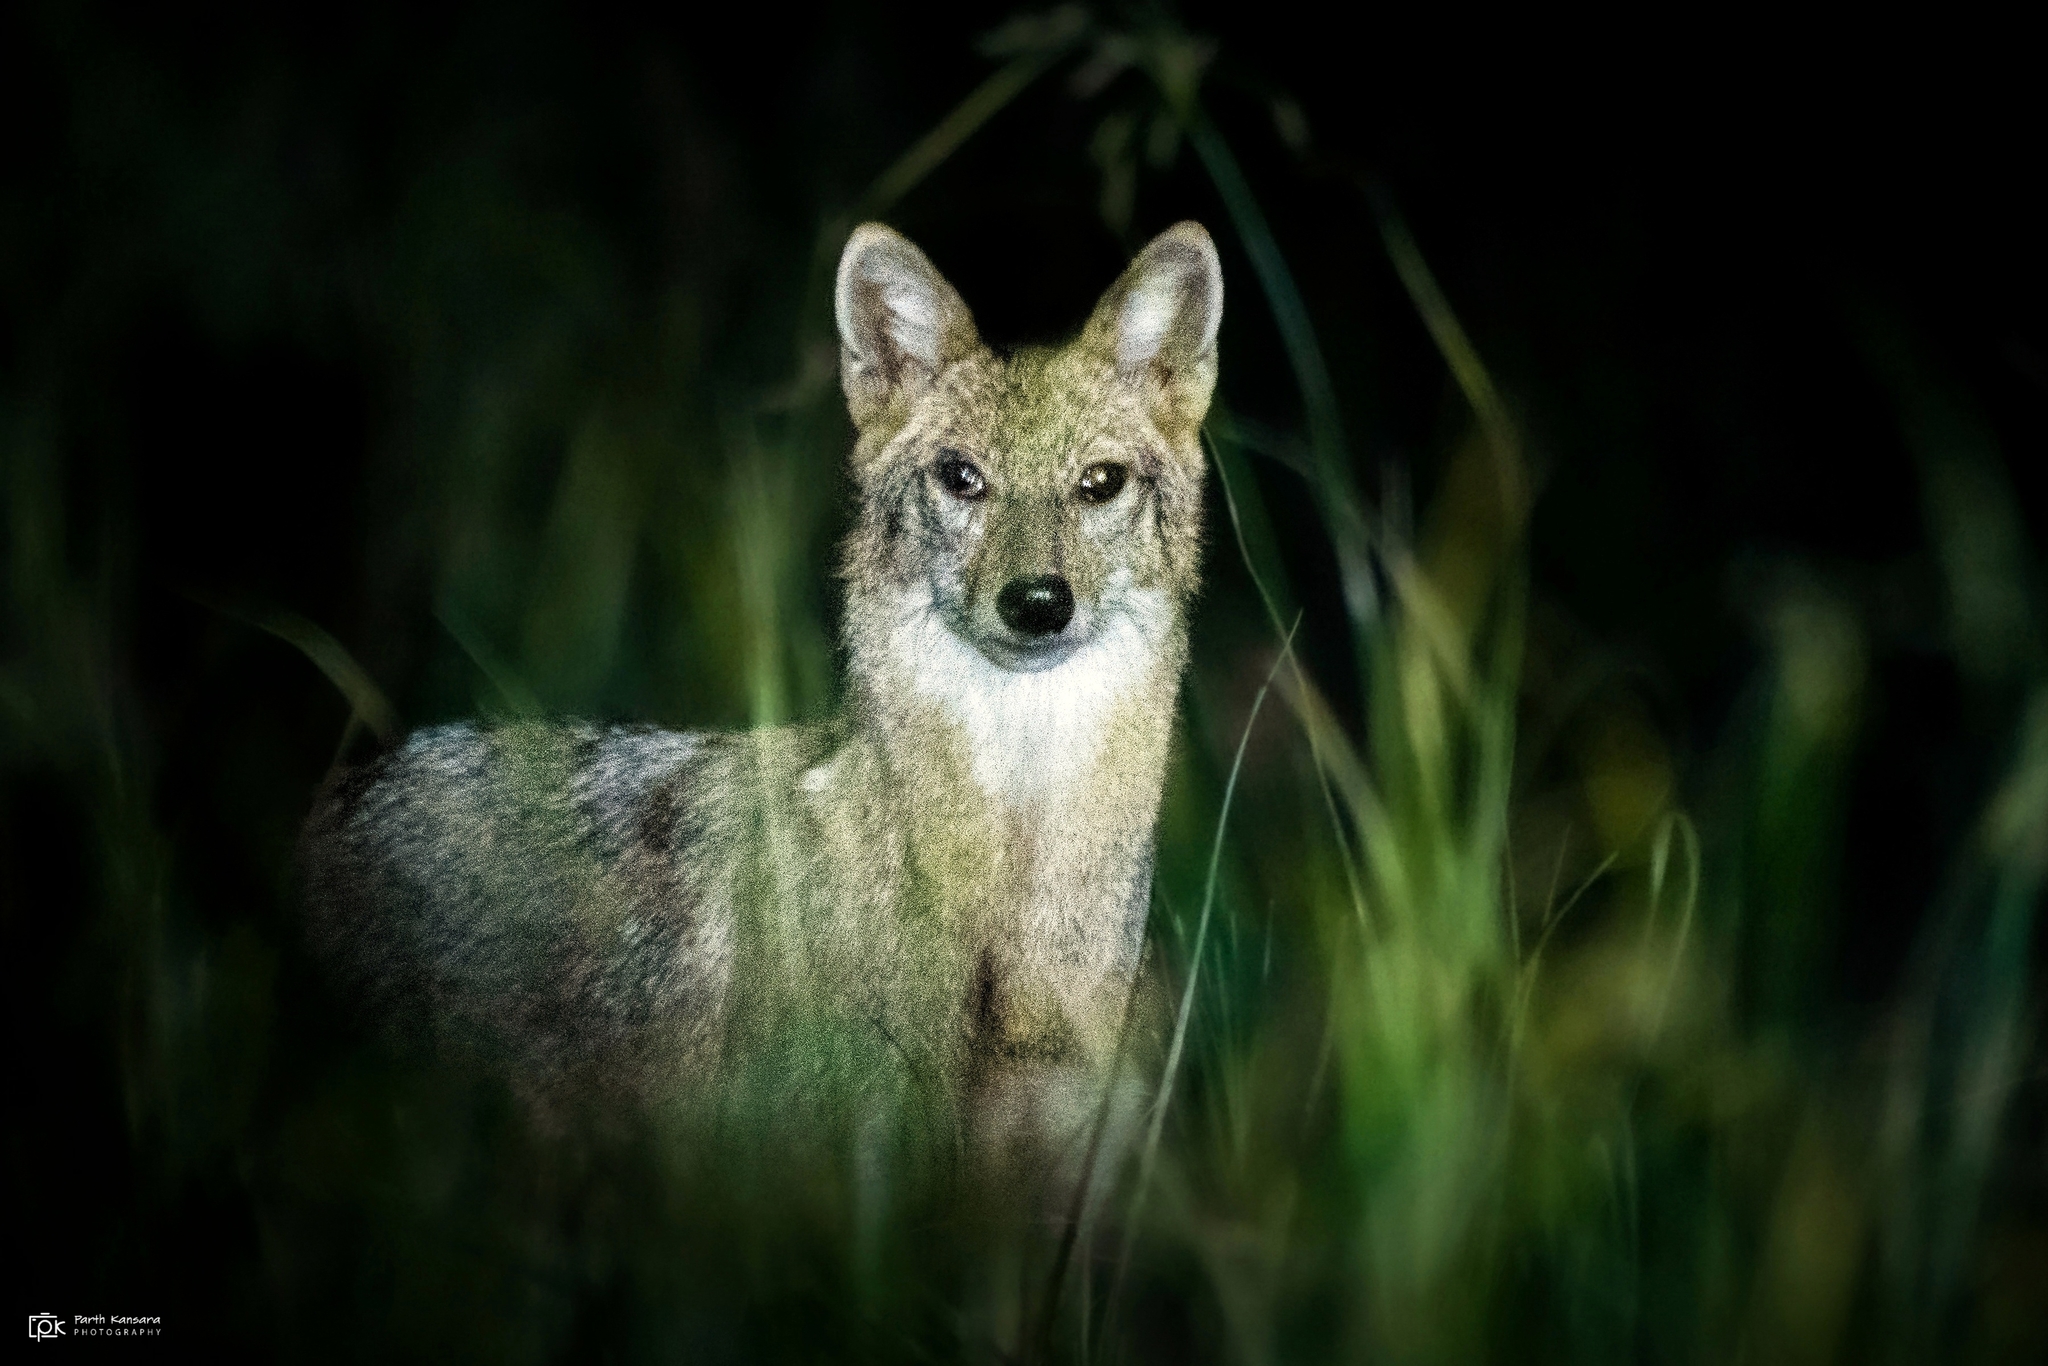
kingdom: Animalia
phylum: Chordata
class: Mammalia
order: Carnivora
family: Canidae
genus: Canis
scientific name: Canis aureus
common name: Golden jackal
